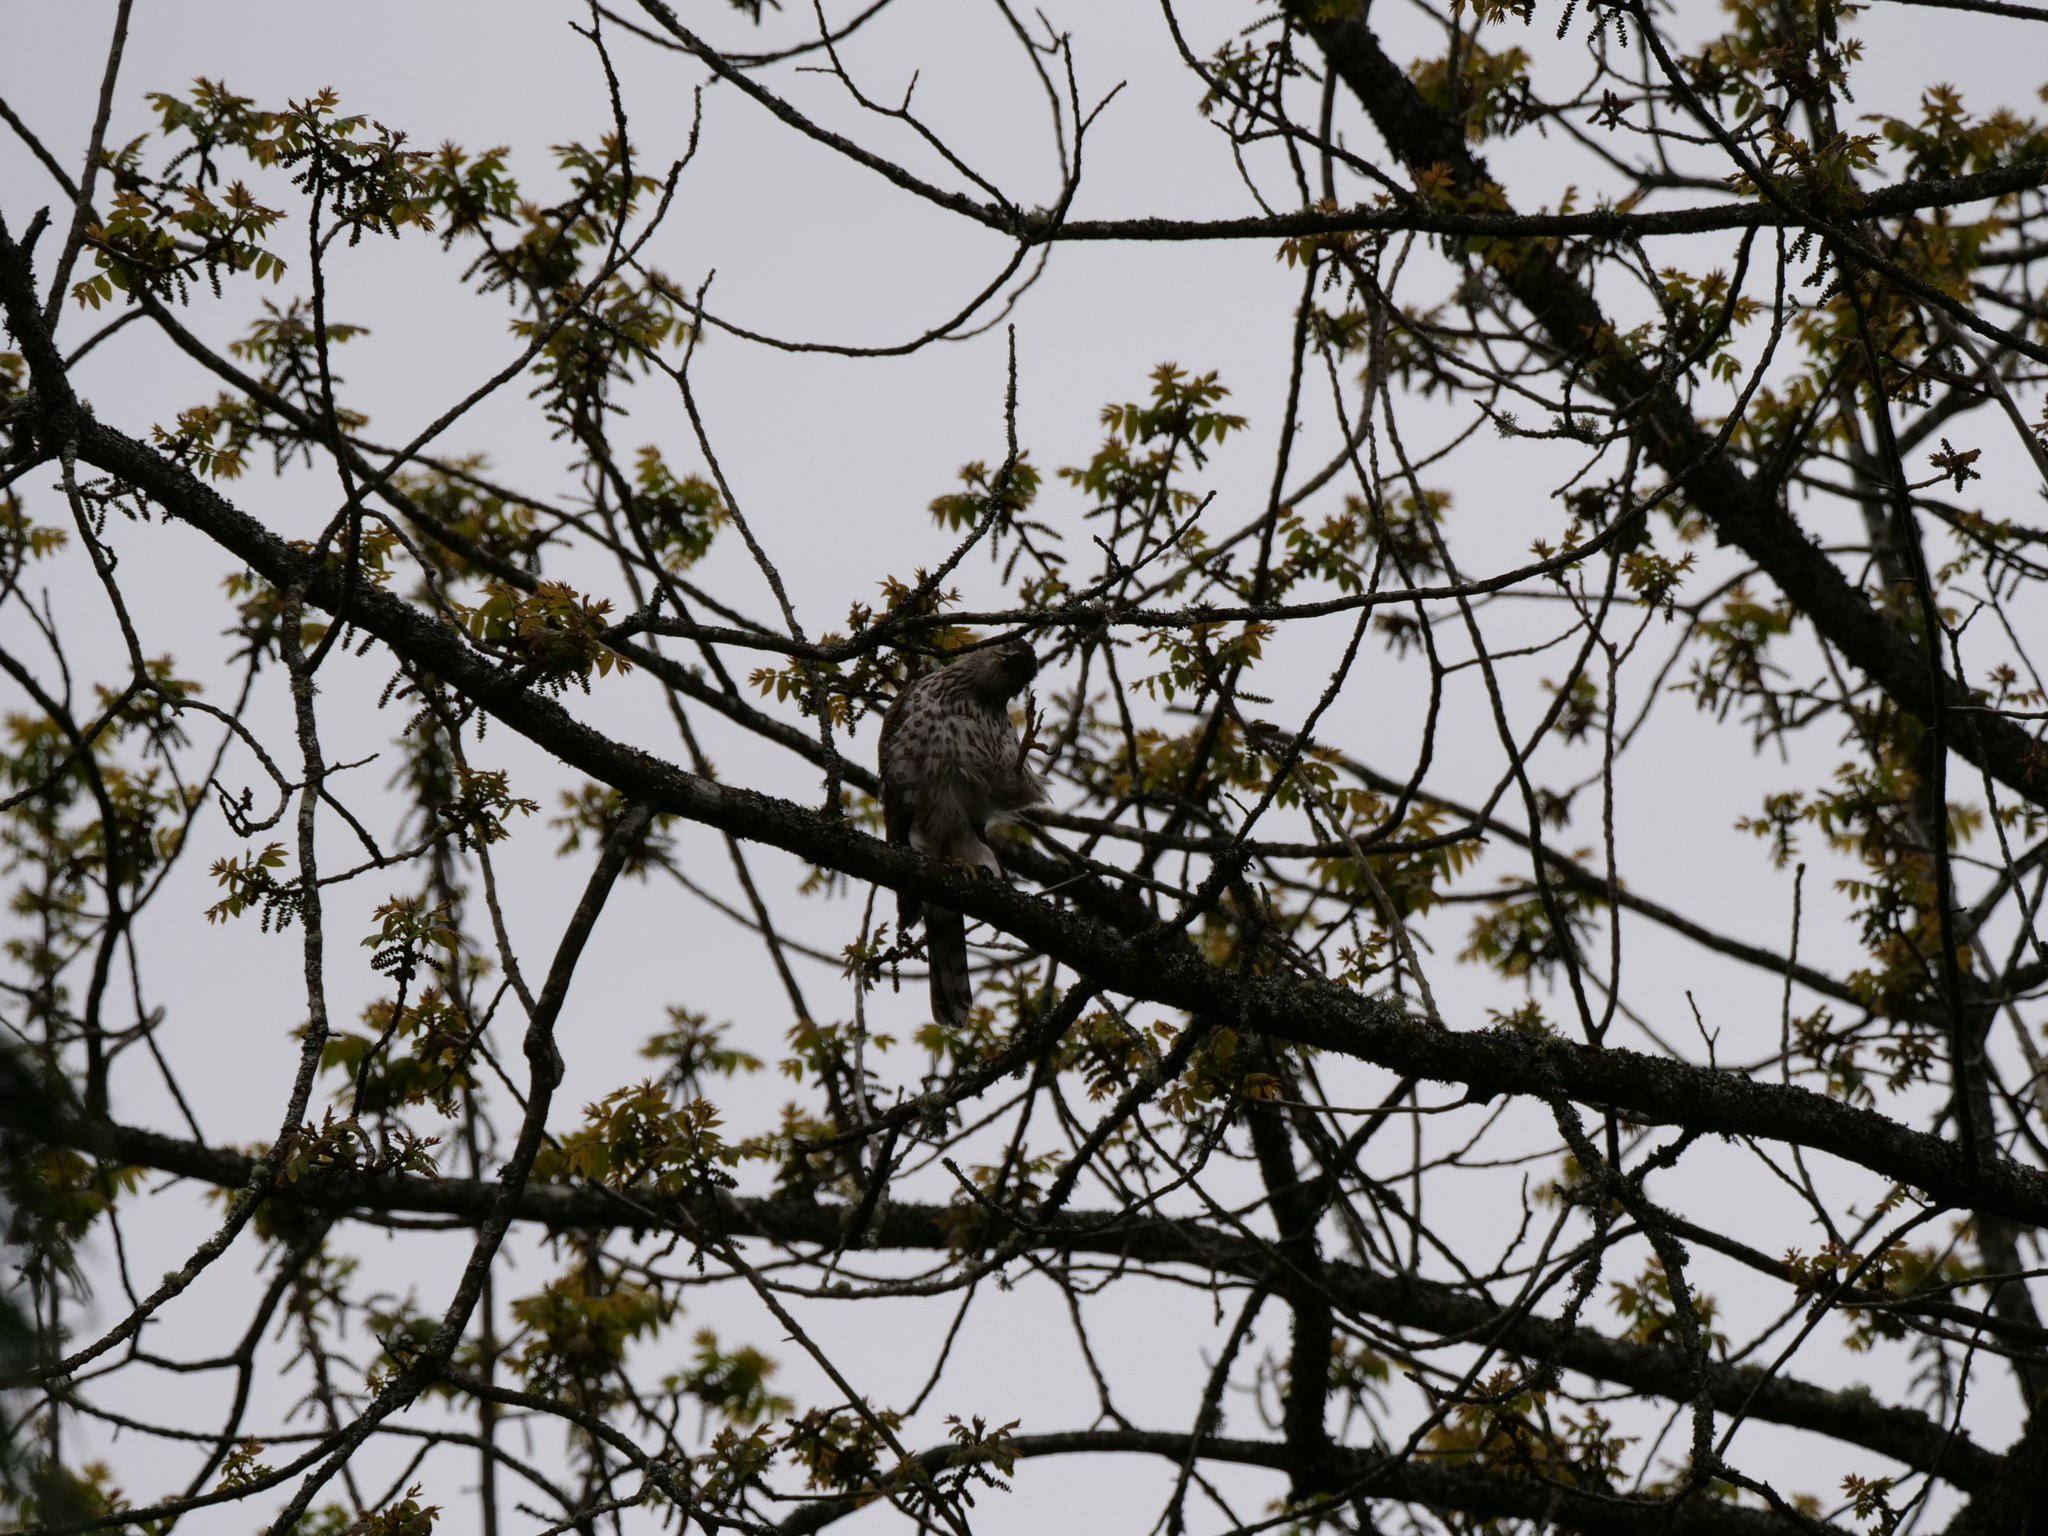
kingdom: Animalia
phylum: Chordata
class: Aves
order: Accipitriformes
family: Accipitridae
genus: Accipiter
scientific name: Accipiter cooperii
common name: Cooper's hawk
